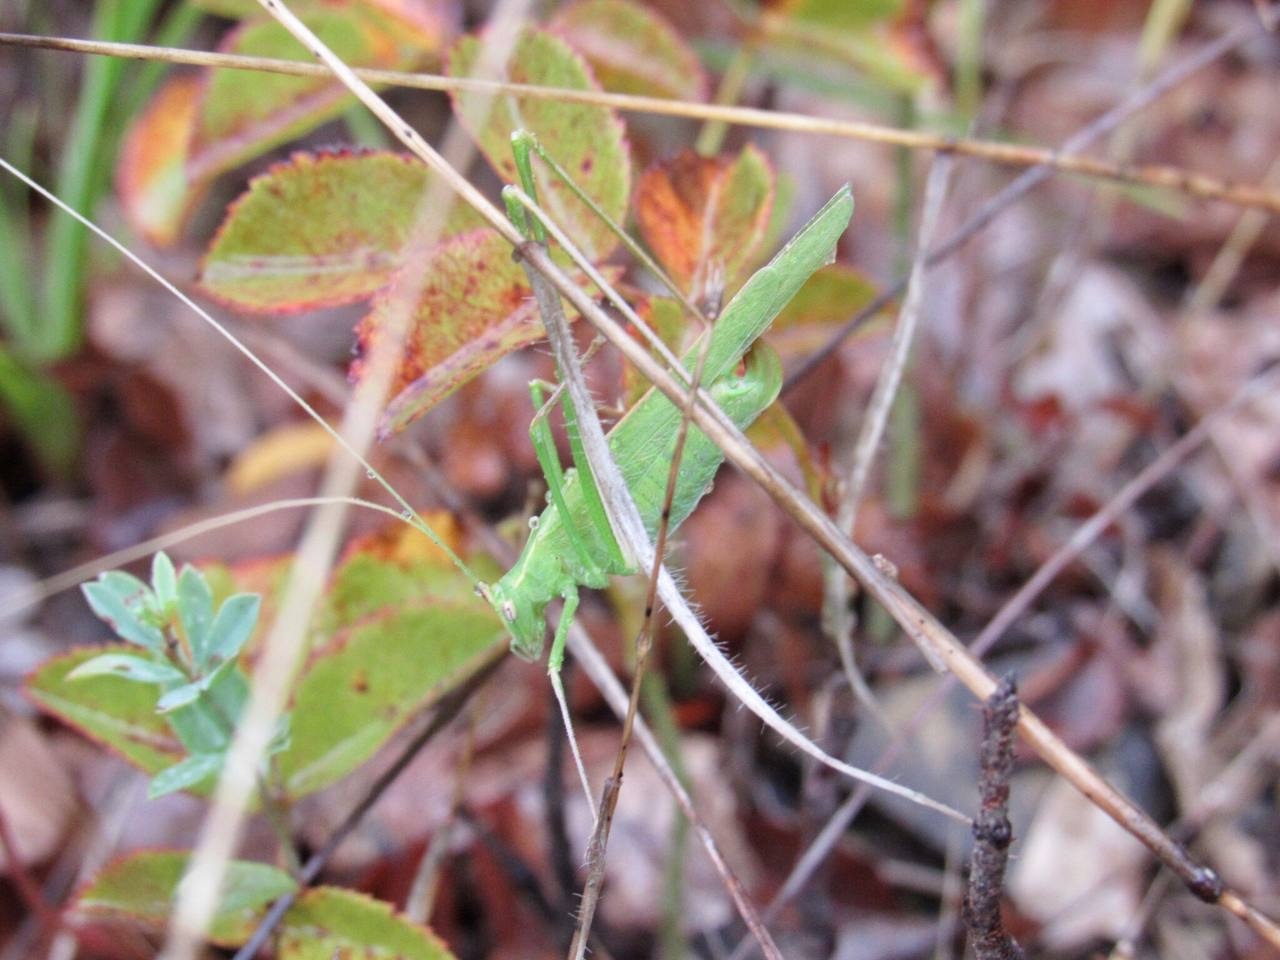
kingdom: Animalia
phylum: Arthropoda
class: Insecta
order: Orthoptera
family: Tettigoniidae
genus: Tylopsis
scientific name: Tylopsis lilifolia
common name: Lily bush-cricket
